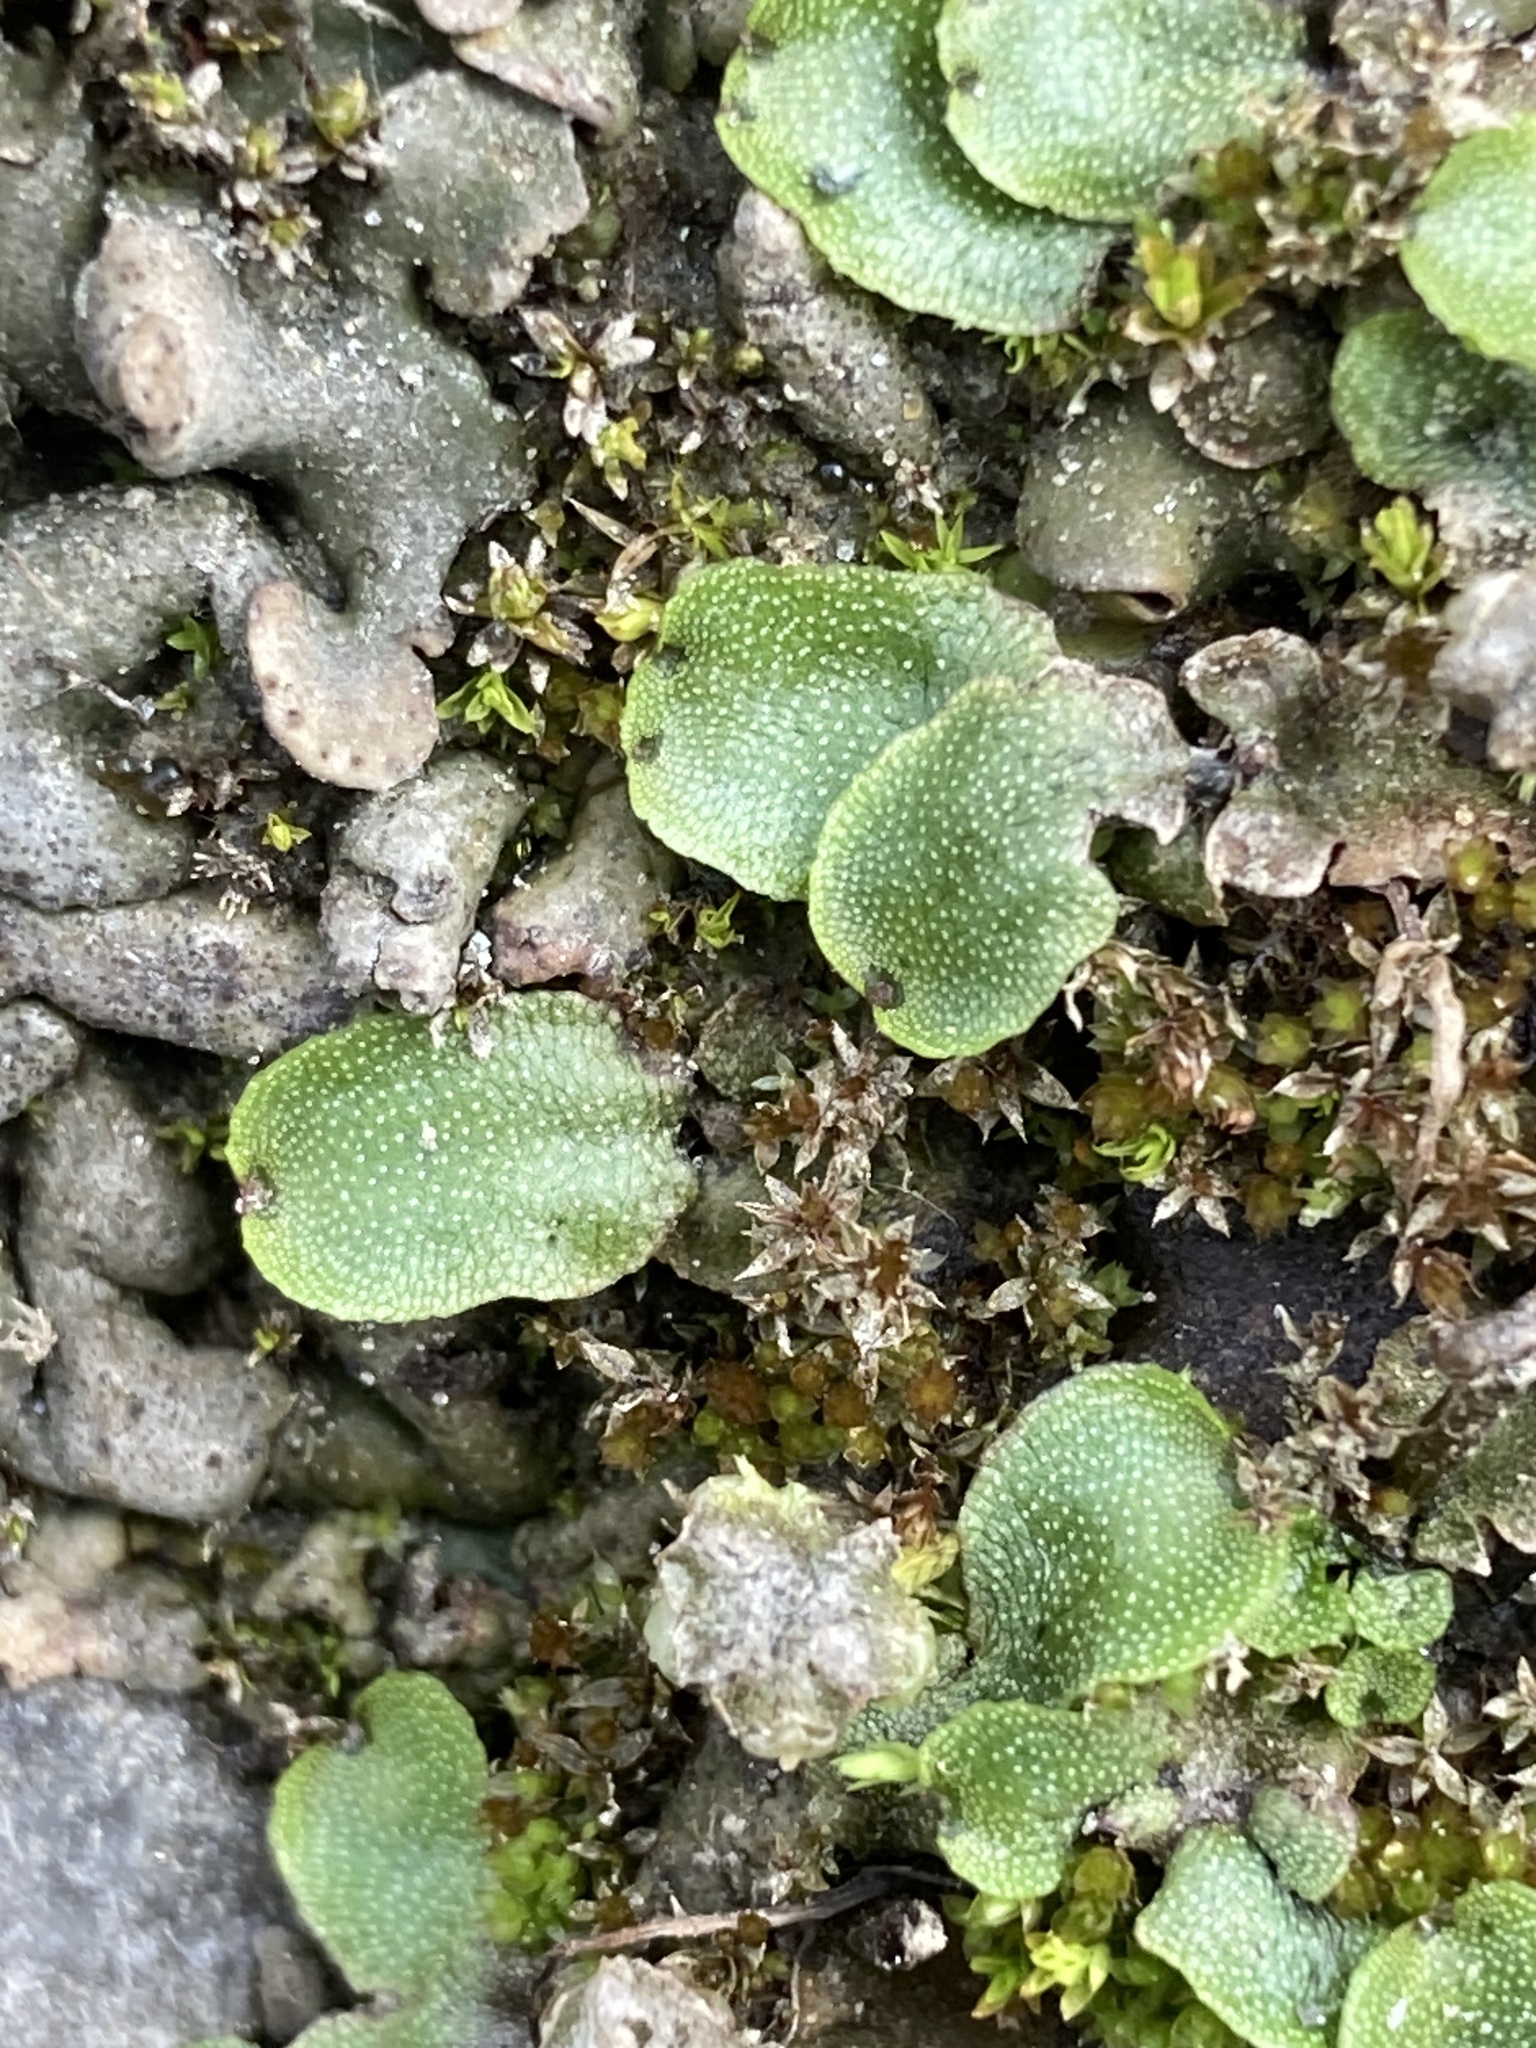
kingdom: Plantae
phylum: Marchantiophyta
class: Marchantiopsida
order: Marchantiales
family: Marchantiaceae
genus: Marchantia
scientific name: Marchantia quadrata
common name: Narrow mushroom-headed liverwort
